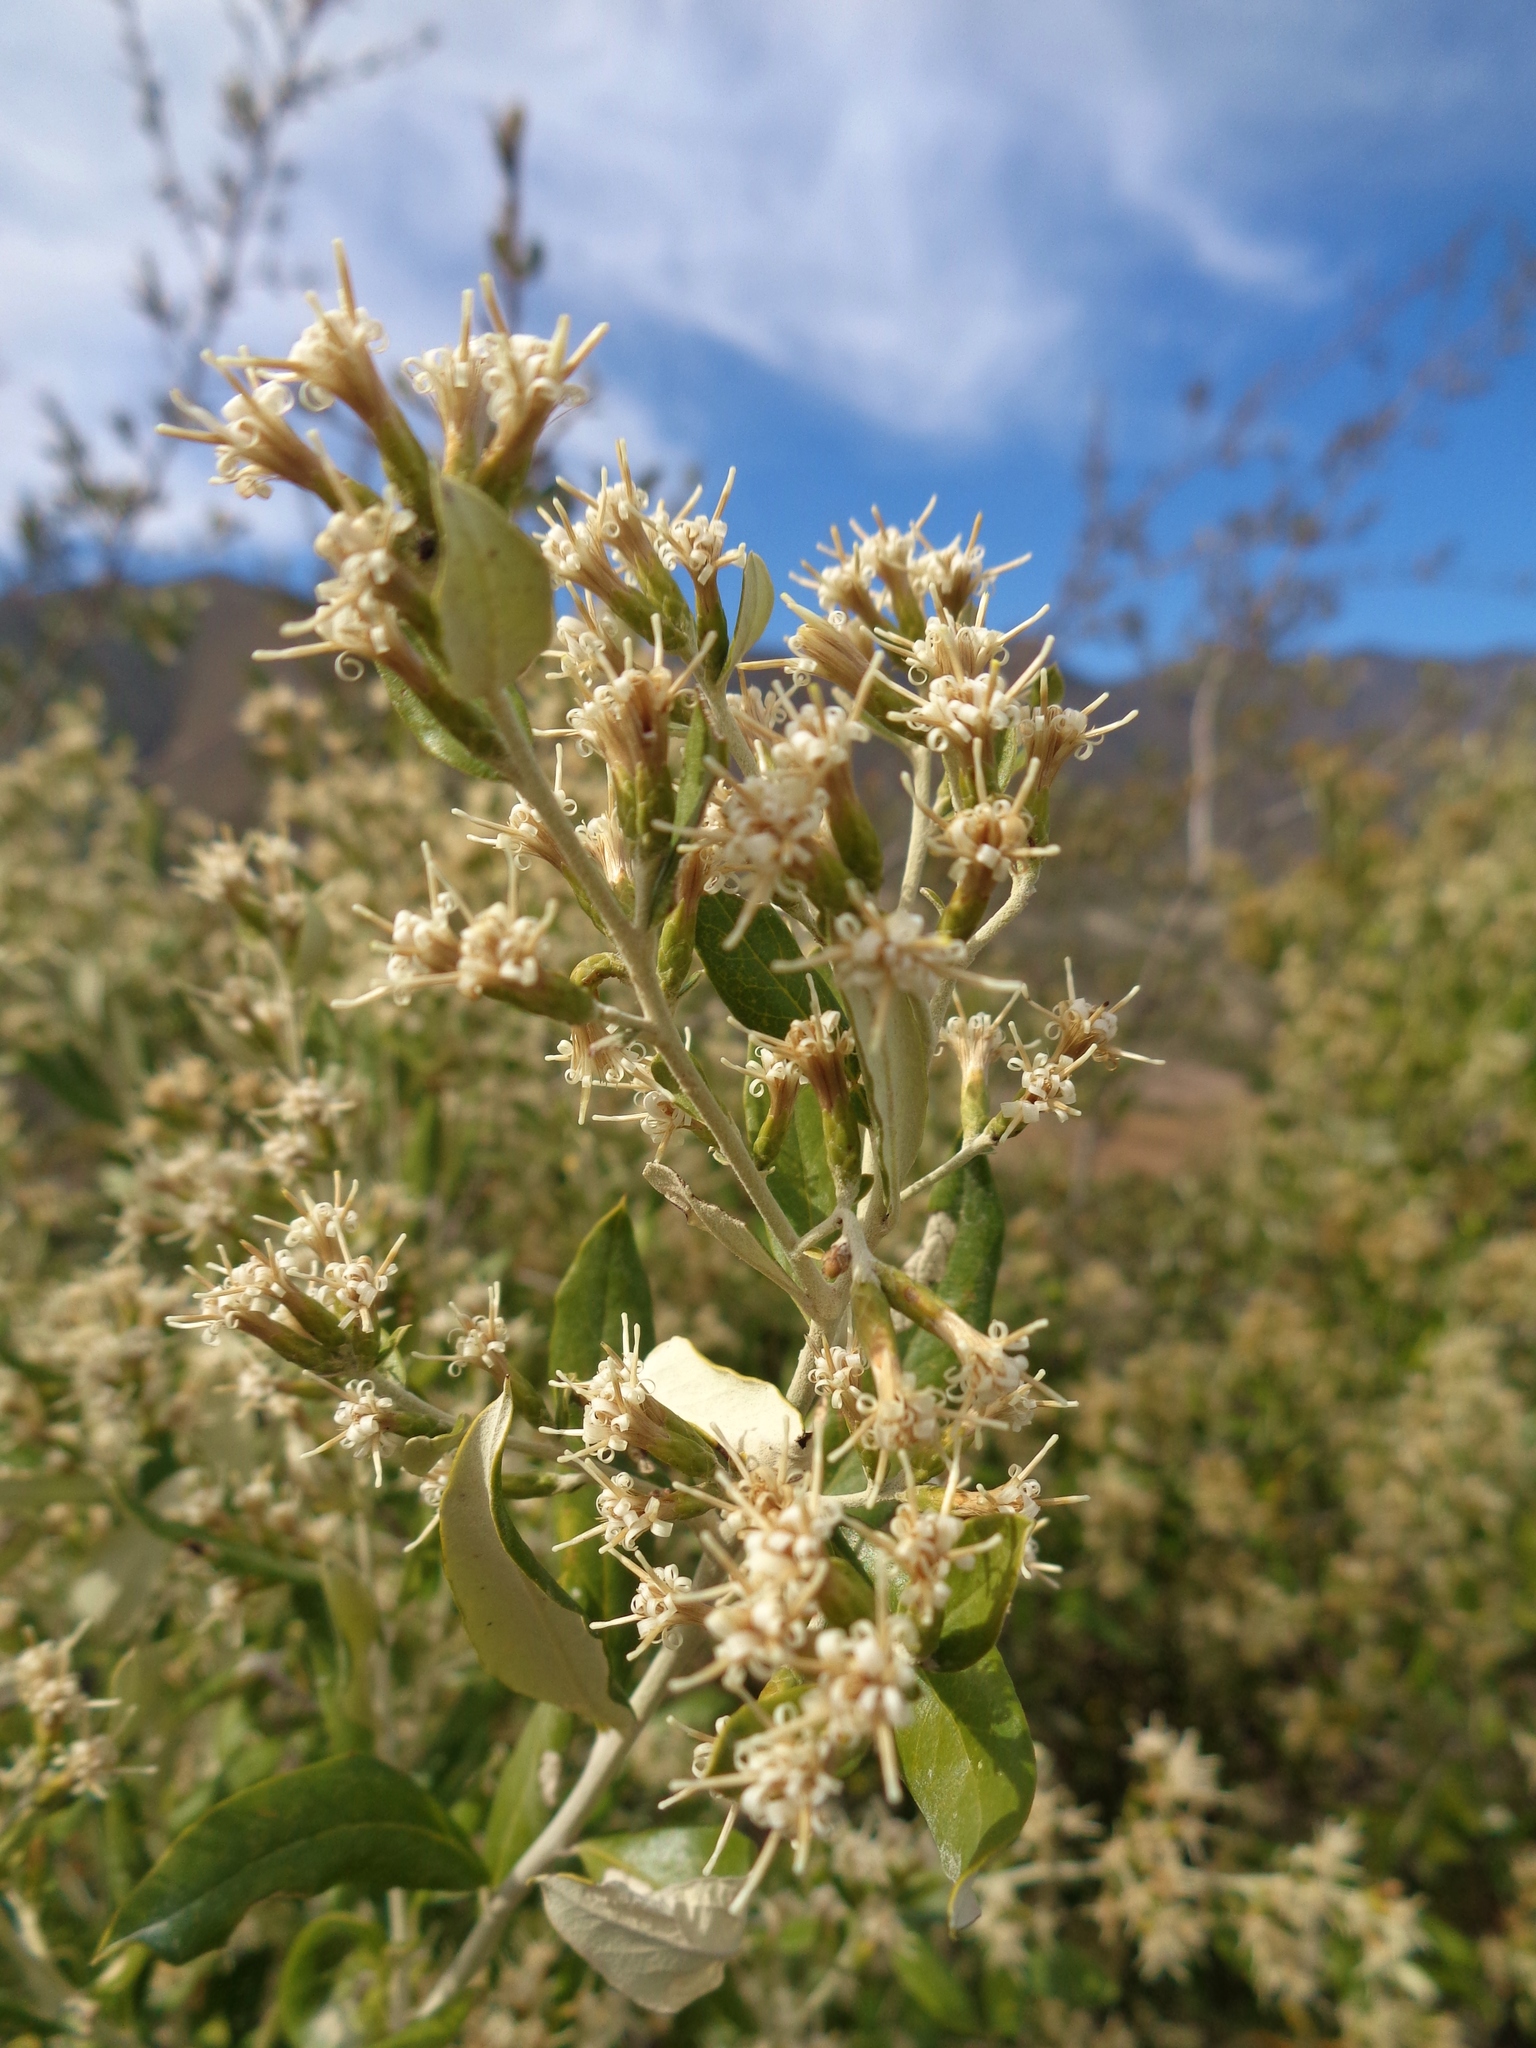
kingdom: Plantae
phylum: Tracheophyta
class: Magnoliopsida
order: Asterales
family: Asteraceae
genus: Nahuatlea
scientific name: Nahuatlea hypoleuca
